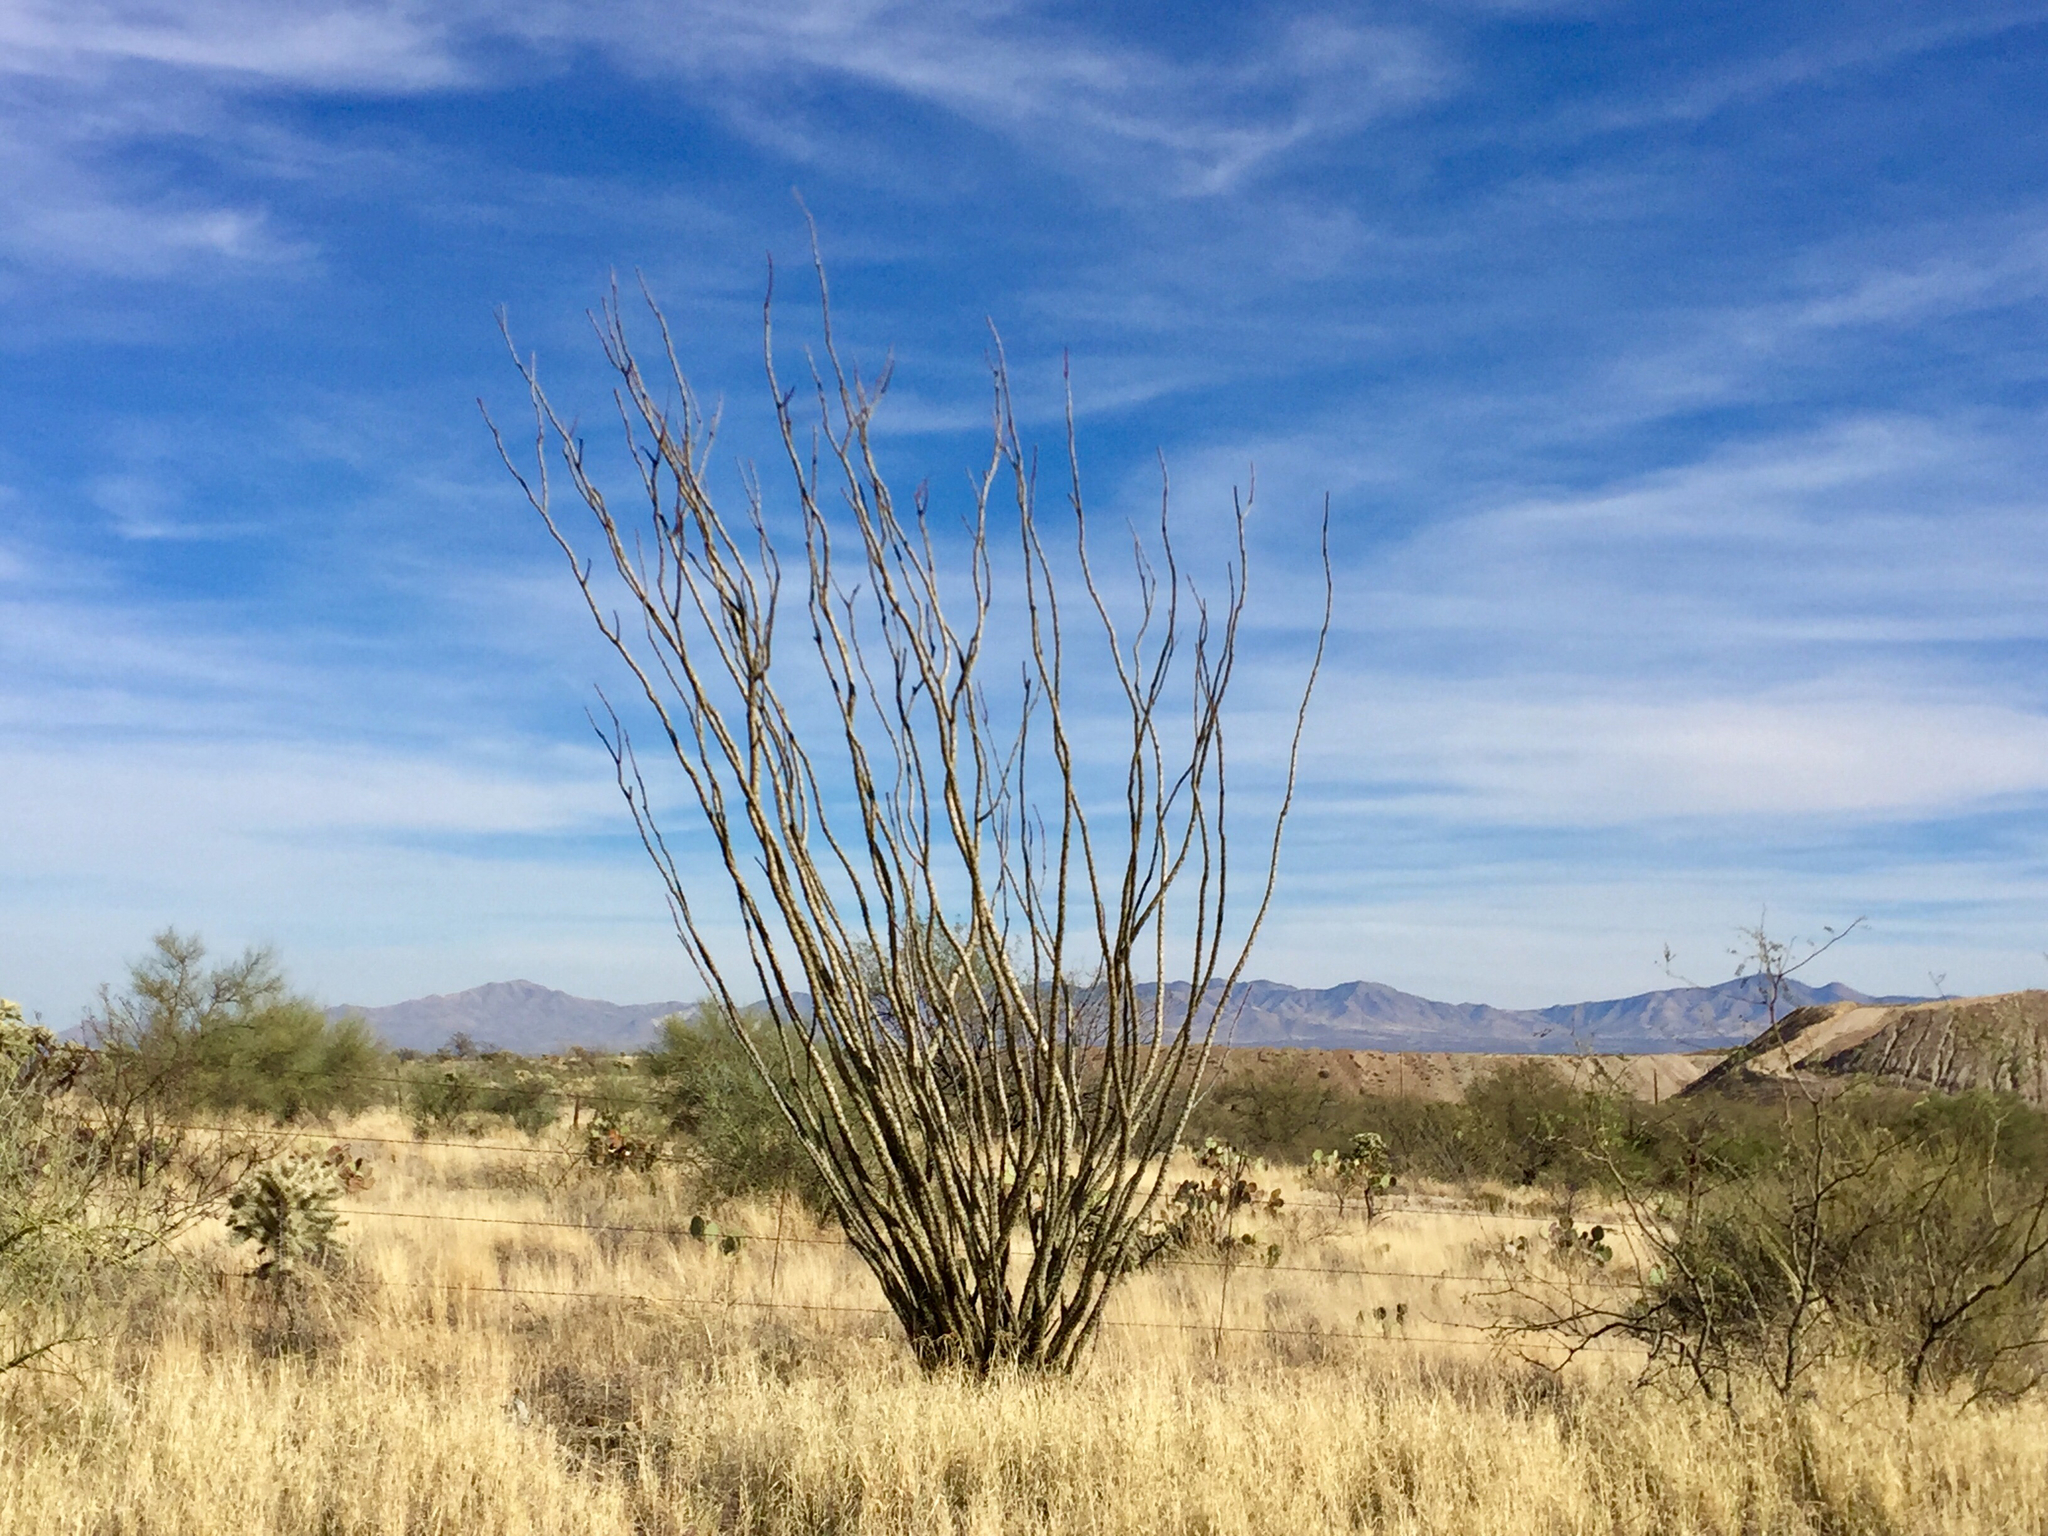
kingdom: Plantae
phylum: Tracheophyta
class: Magnoliopsida
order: Ericales
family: Fouquieriaceae
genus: Fouquieria
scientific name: Fouquieria splendens
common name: Vine-cactus
